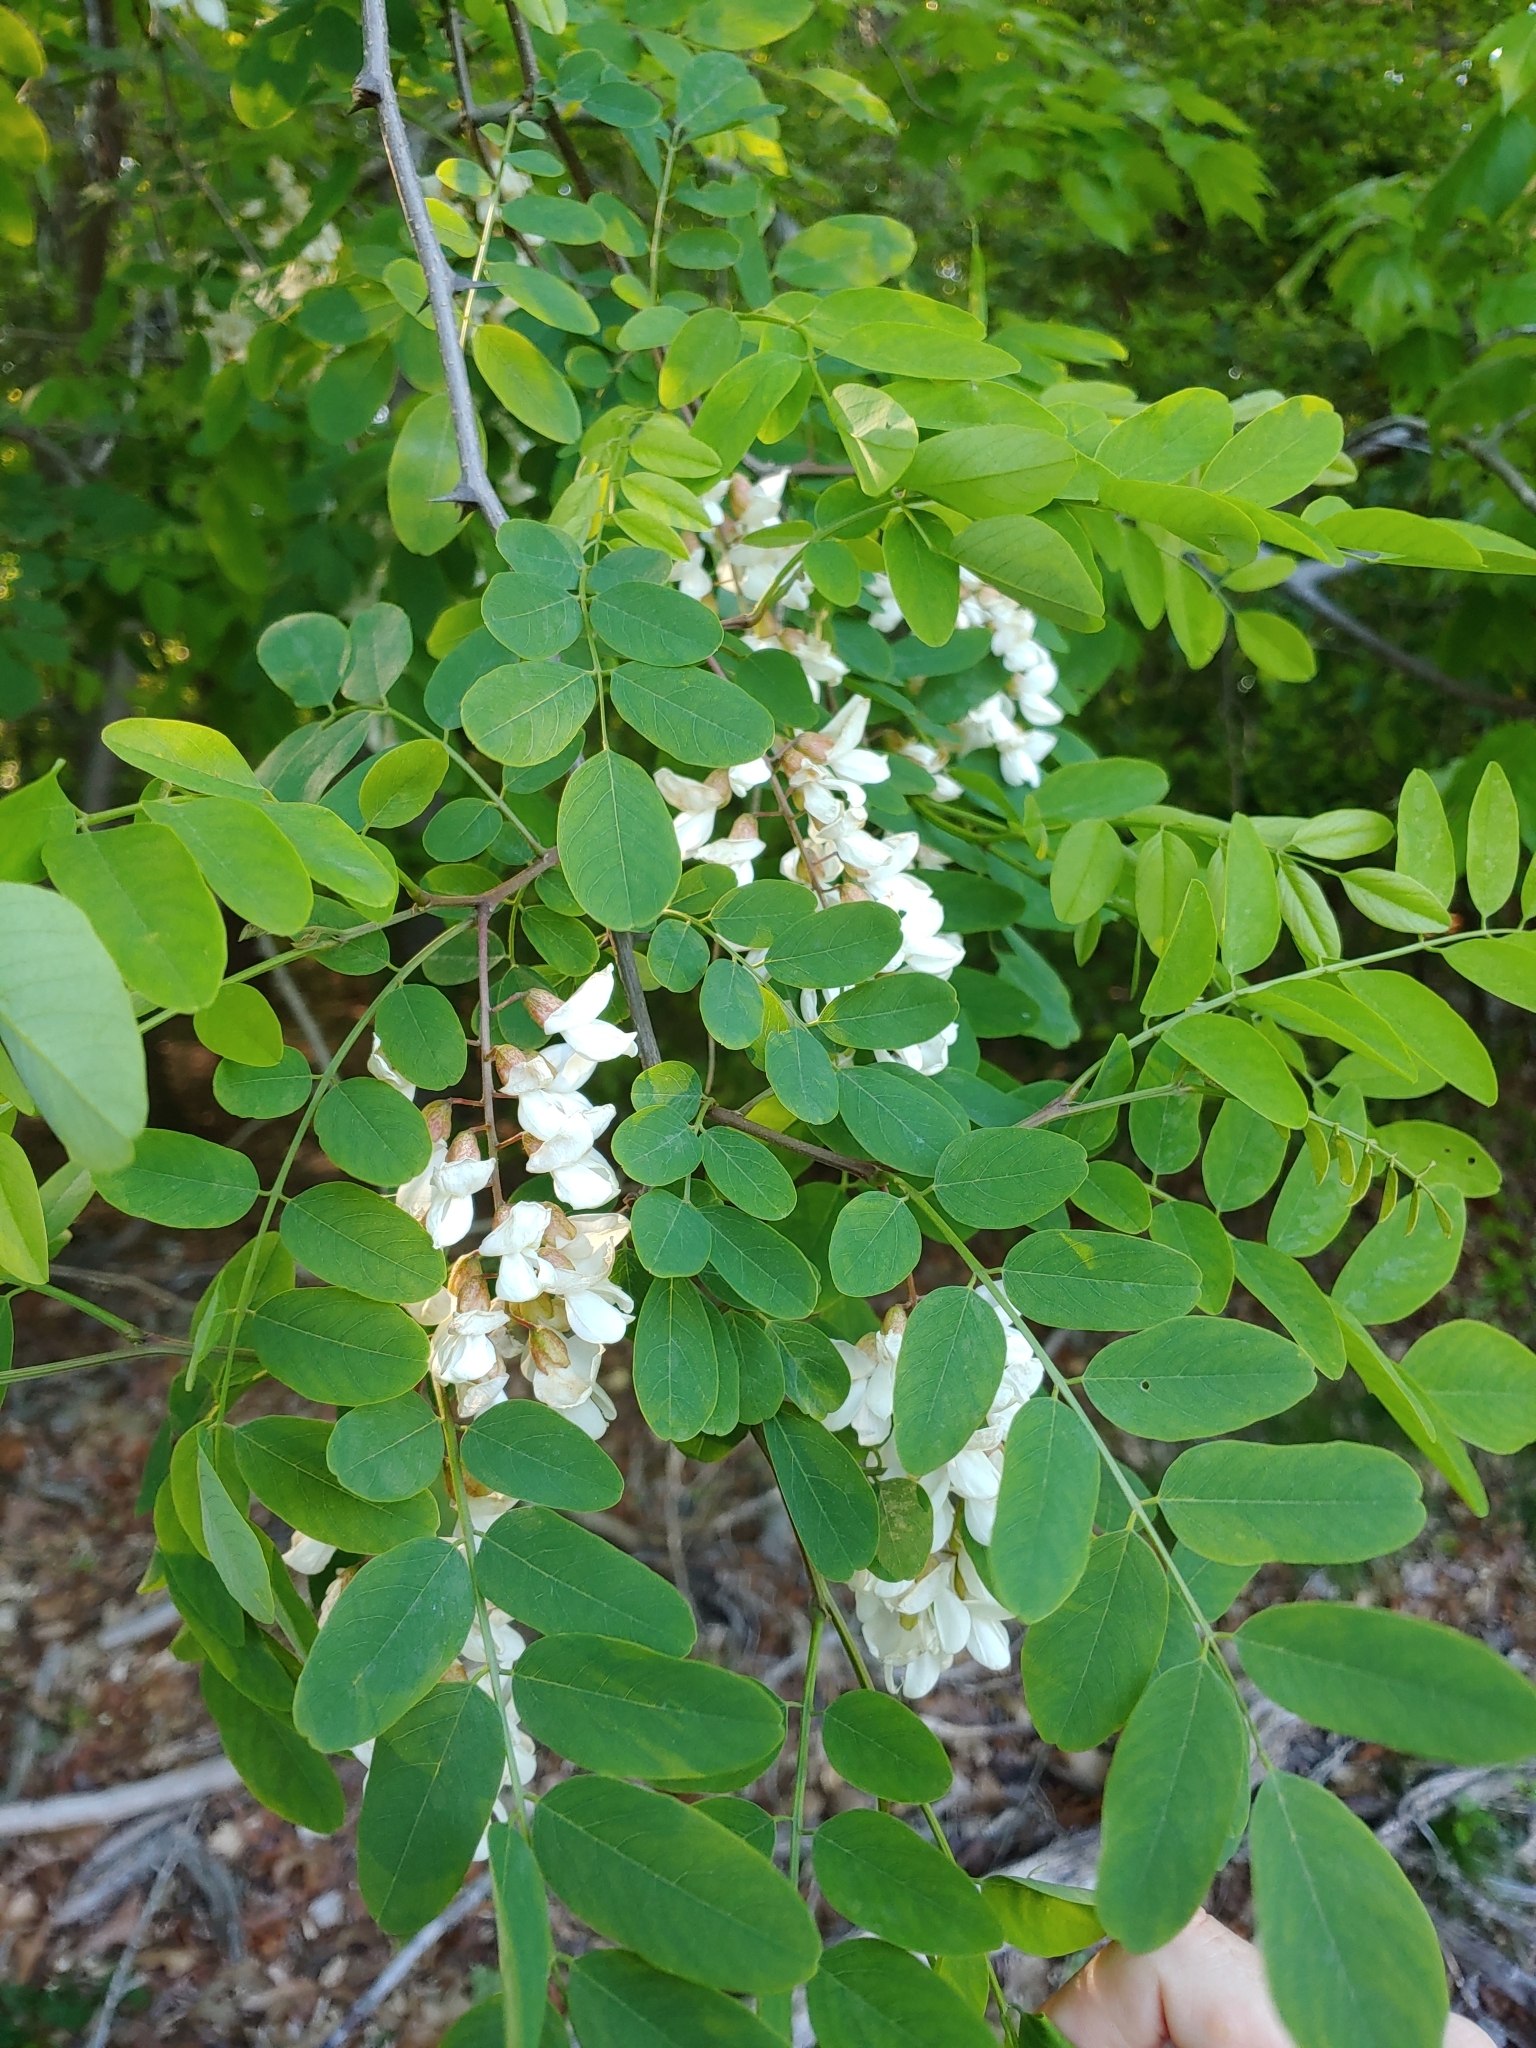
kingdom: Plantae
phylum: Tracheophyta
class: Magnoliopsida
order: Fabales
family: Fabaceae
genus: Robinia
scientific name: Robinia pseudoacacia
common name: Black locust
